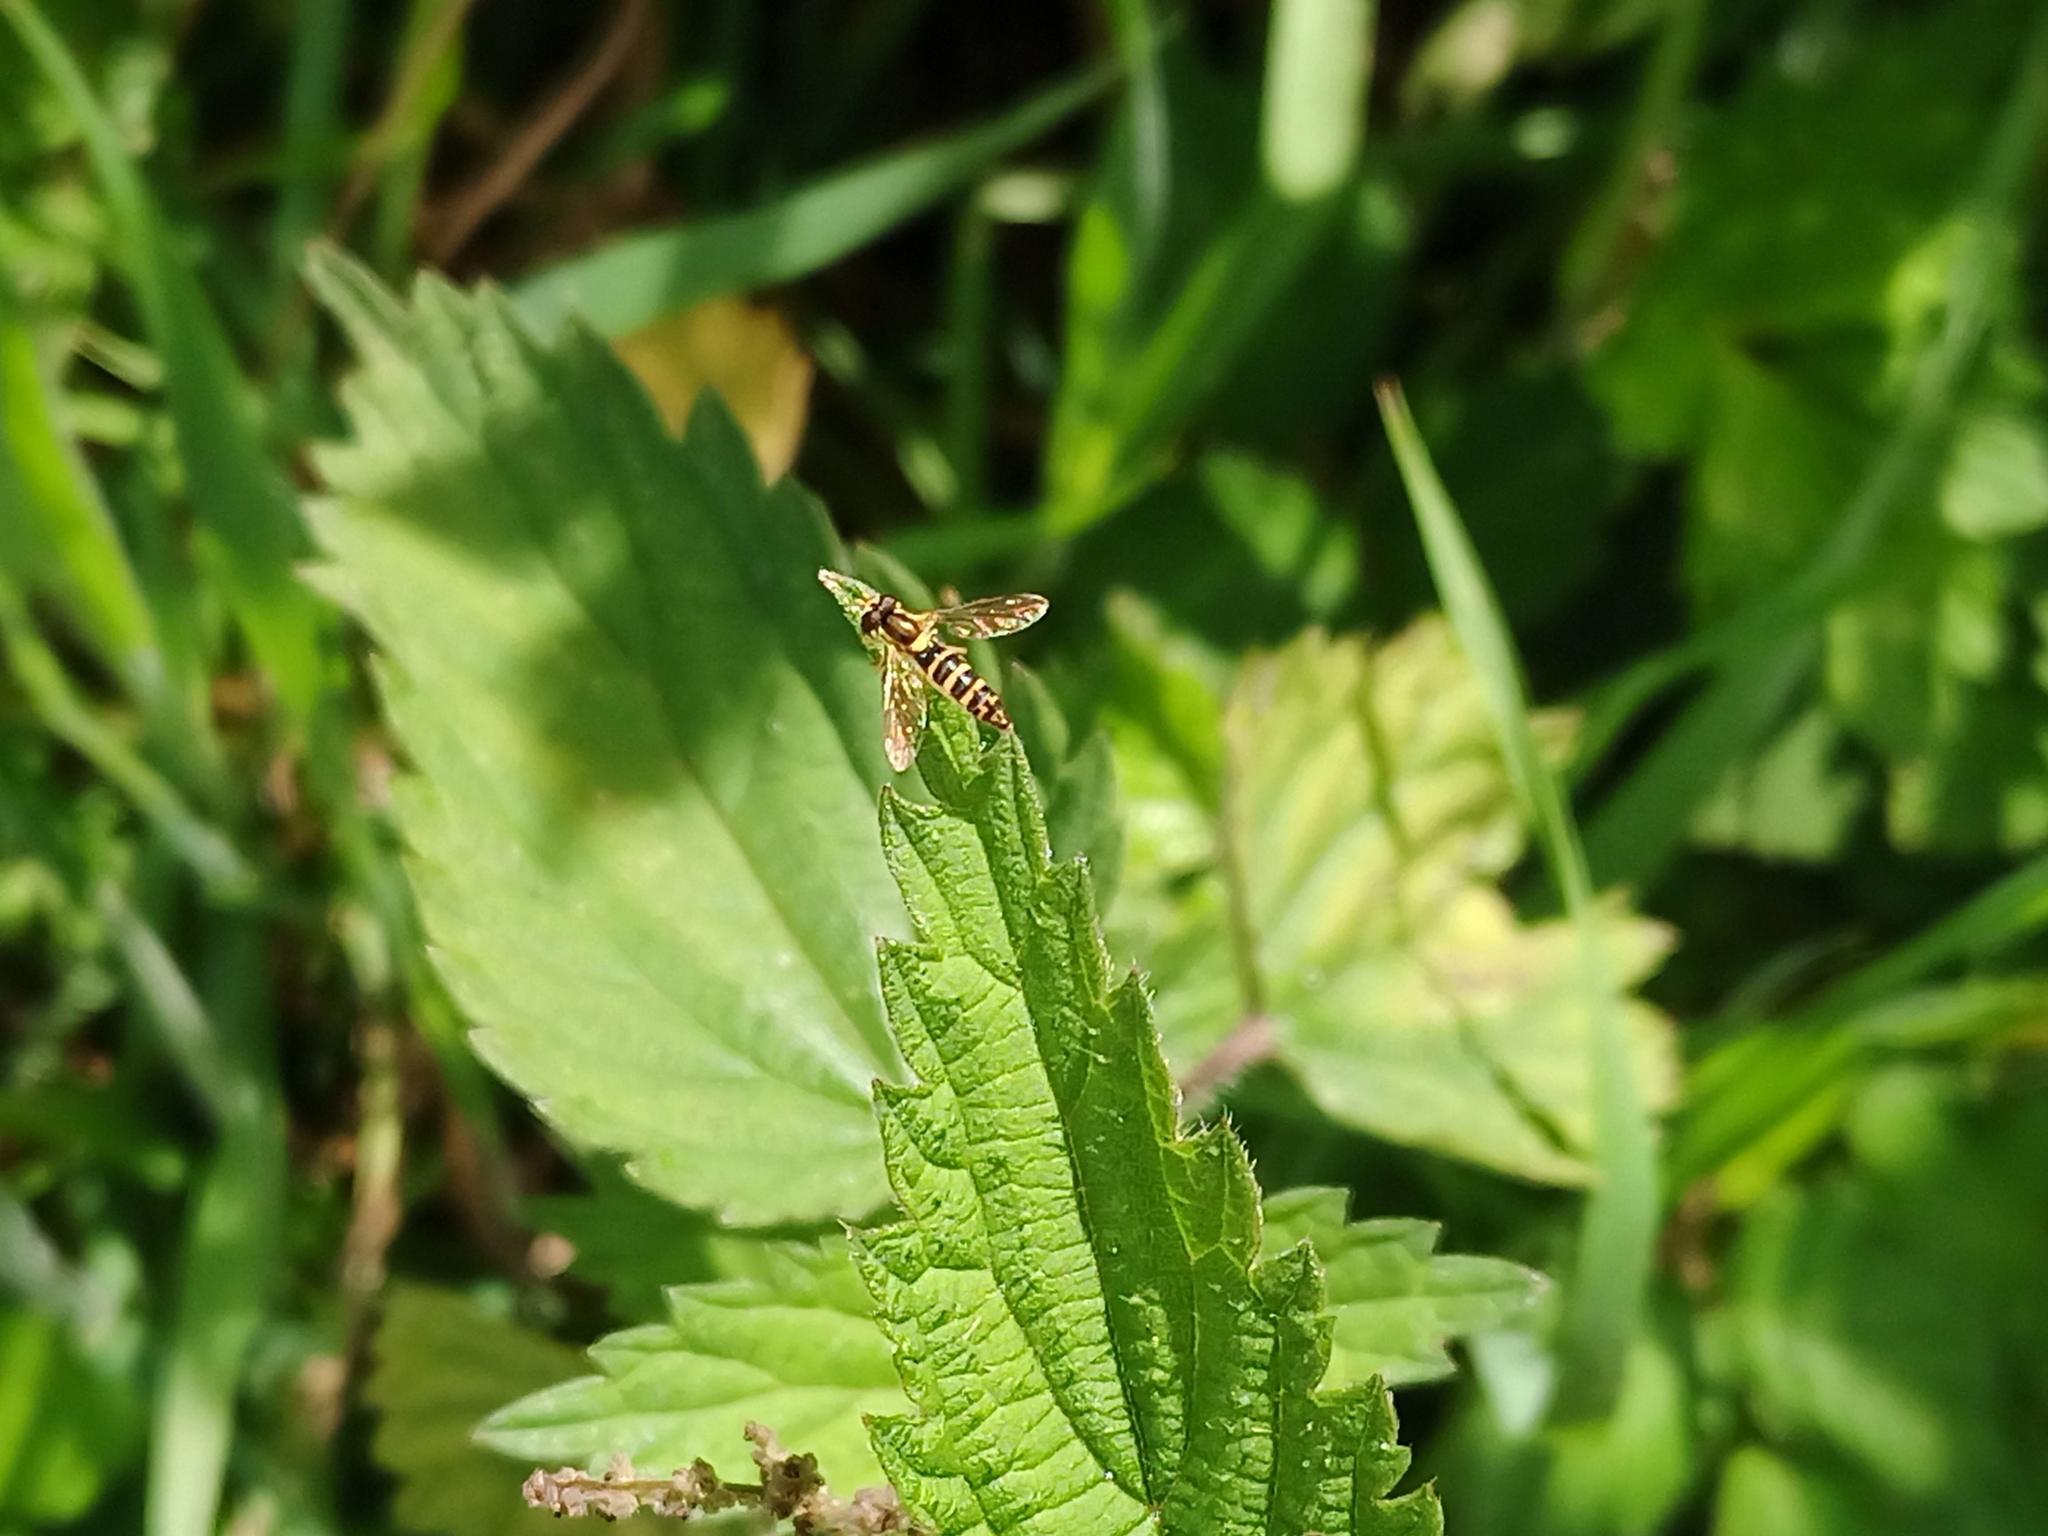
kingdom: Animalia
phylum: Arthropoda
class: Insecta
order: Diptera
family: Syrphidae
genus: Sphaerophoria
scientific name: Sphaerophoria
